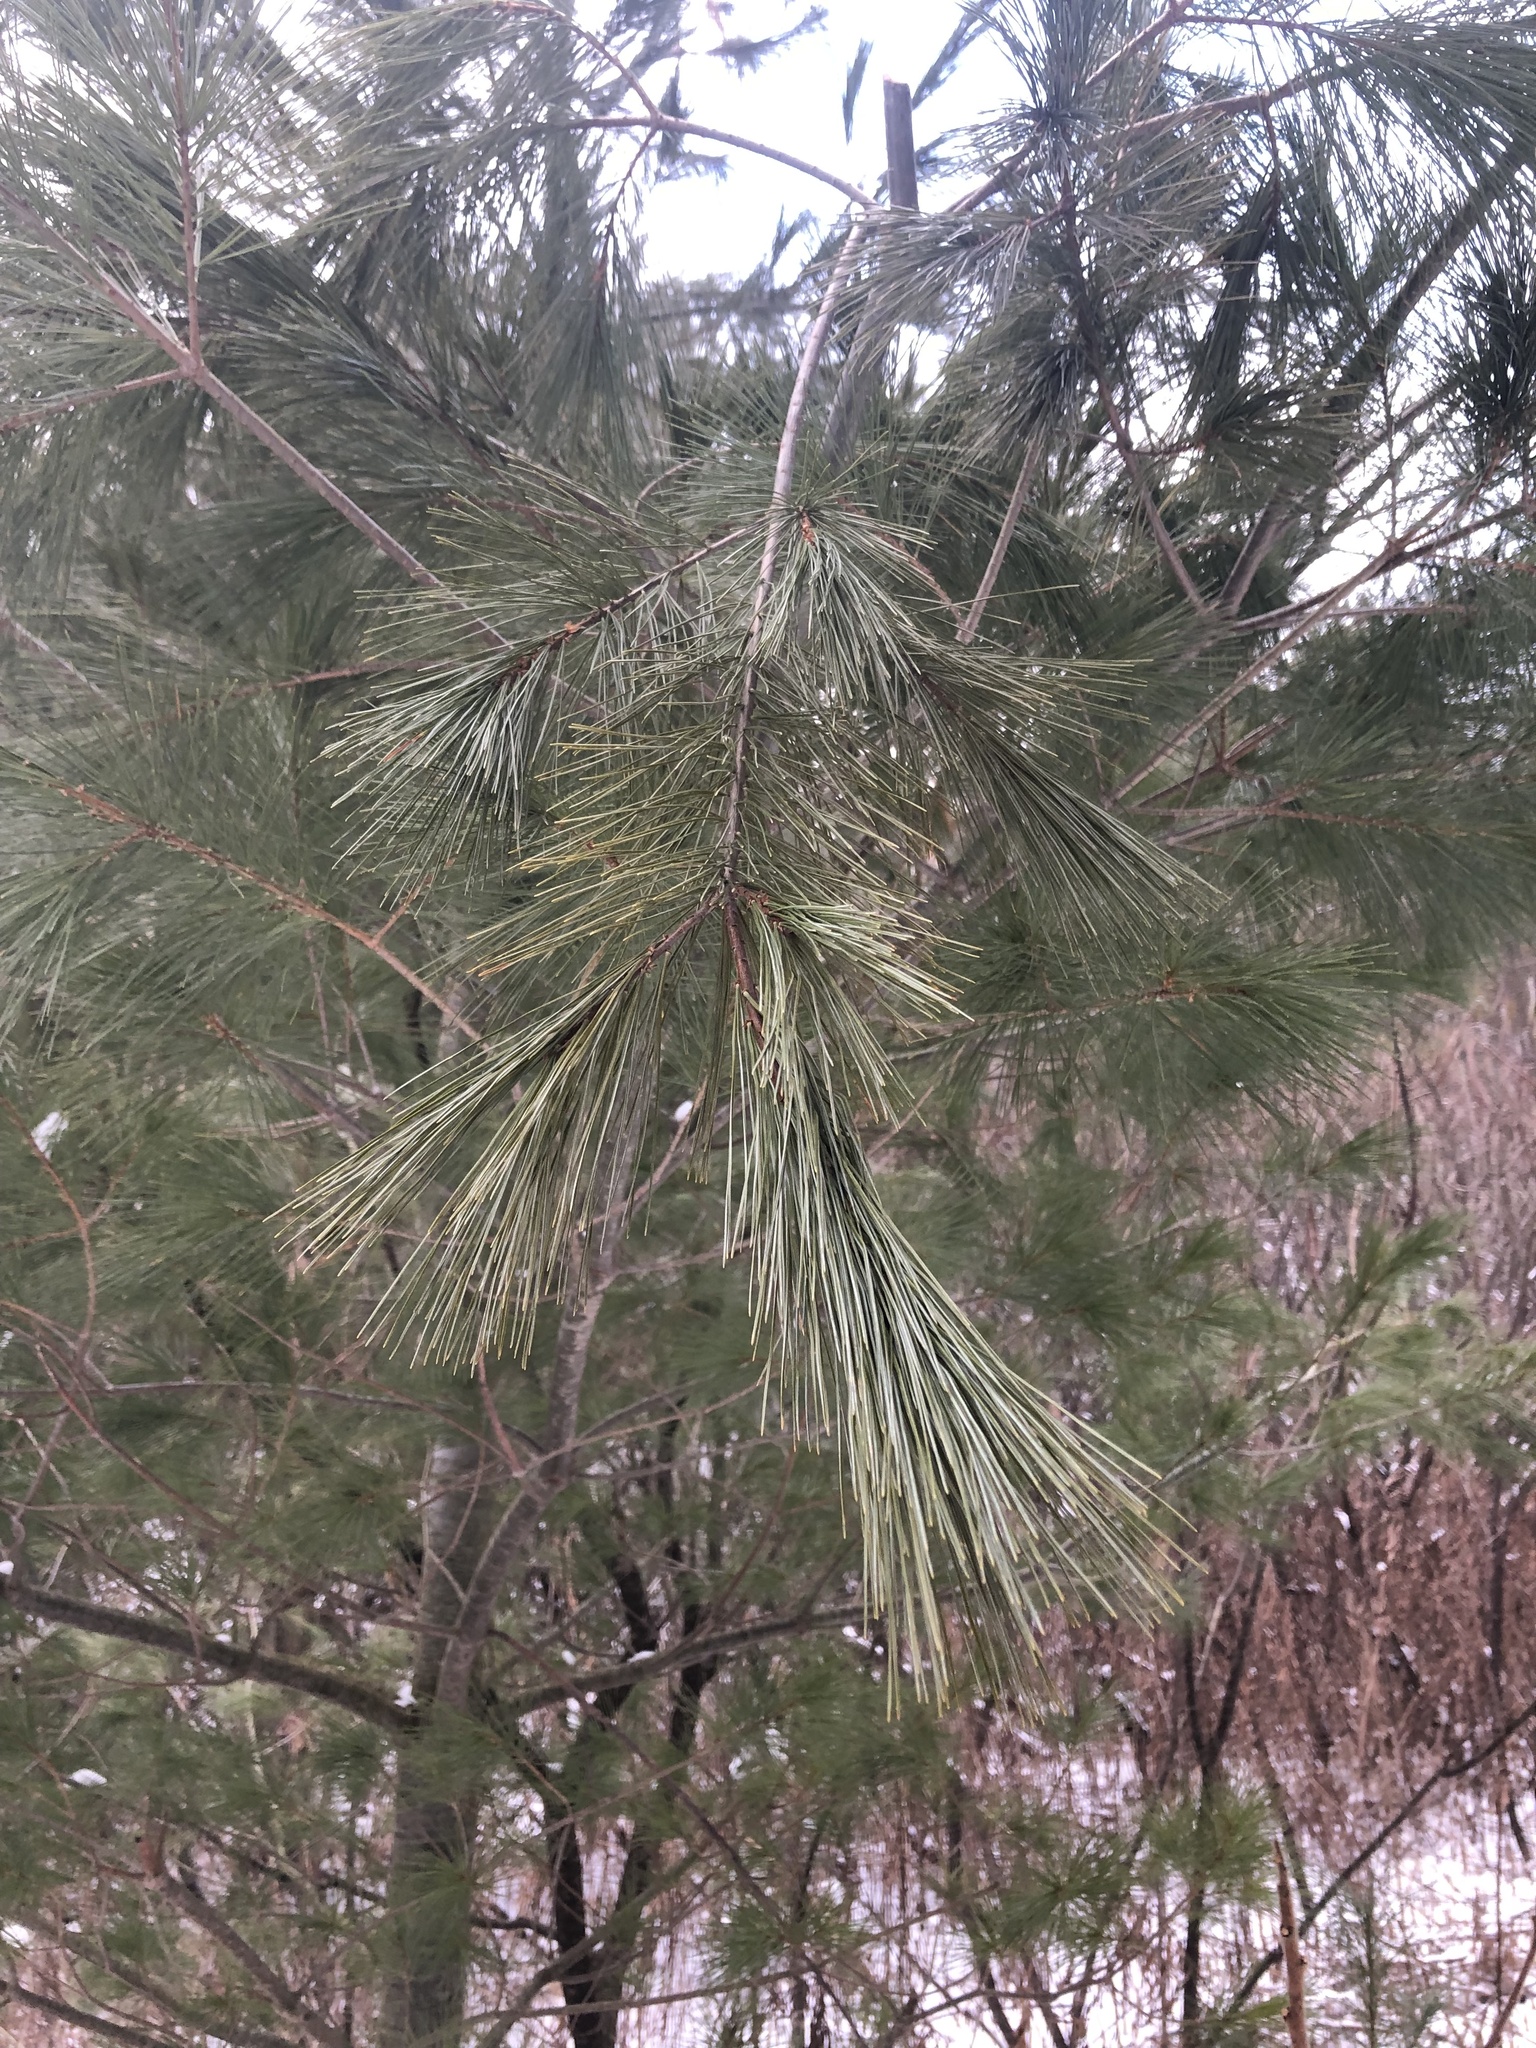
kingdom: Plantae
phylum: Tracheophyta
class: Pinopsida
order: Pinales
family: Pinaceae
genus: Pinus
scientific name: Pinus strobus
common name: Weymouth pine
